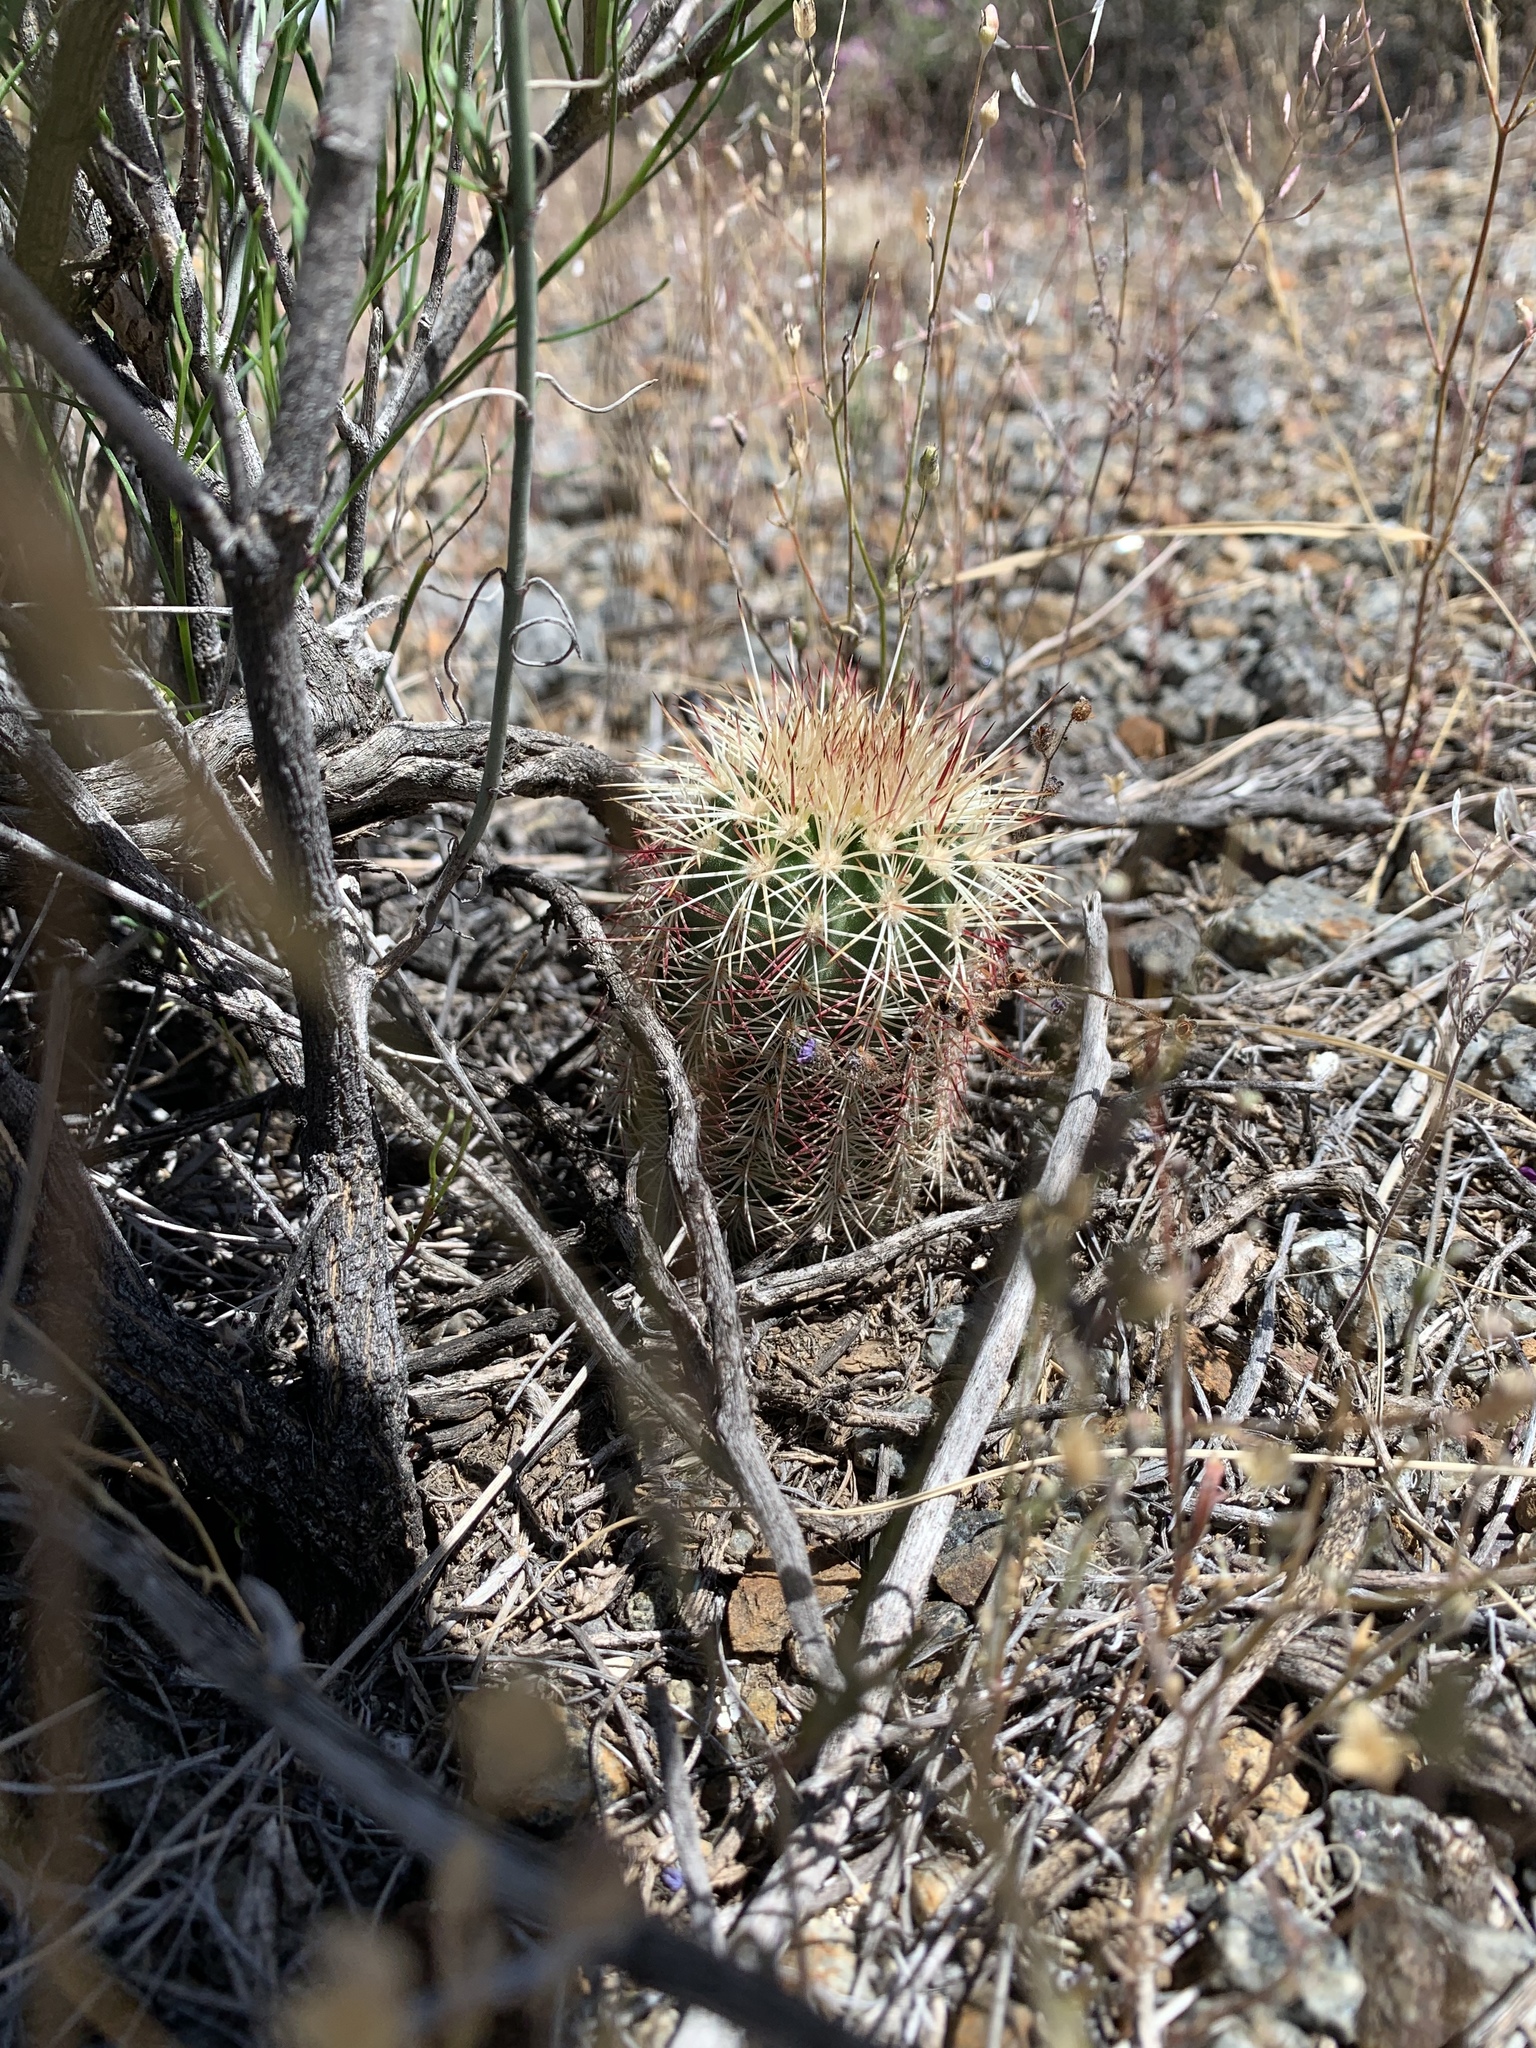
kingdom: Plantae
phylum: Tracheophyta
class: Magnoliopsida
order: Caryophyllales
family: Cactaceae
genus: Echinocereus
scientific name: Echinocereus viridiflorus
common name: Nylon hedgehog cactus
